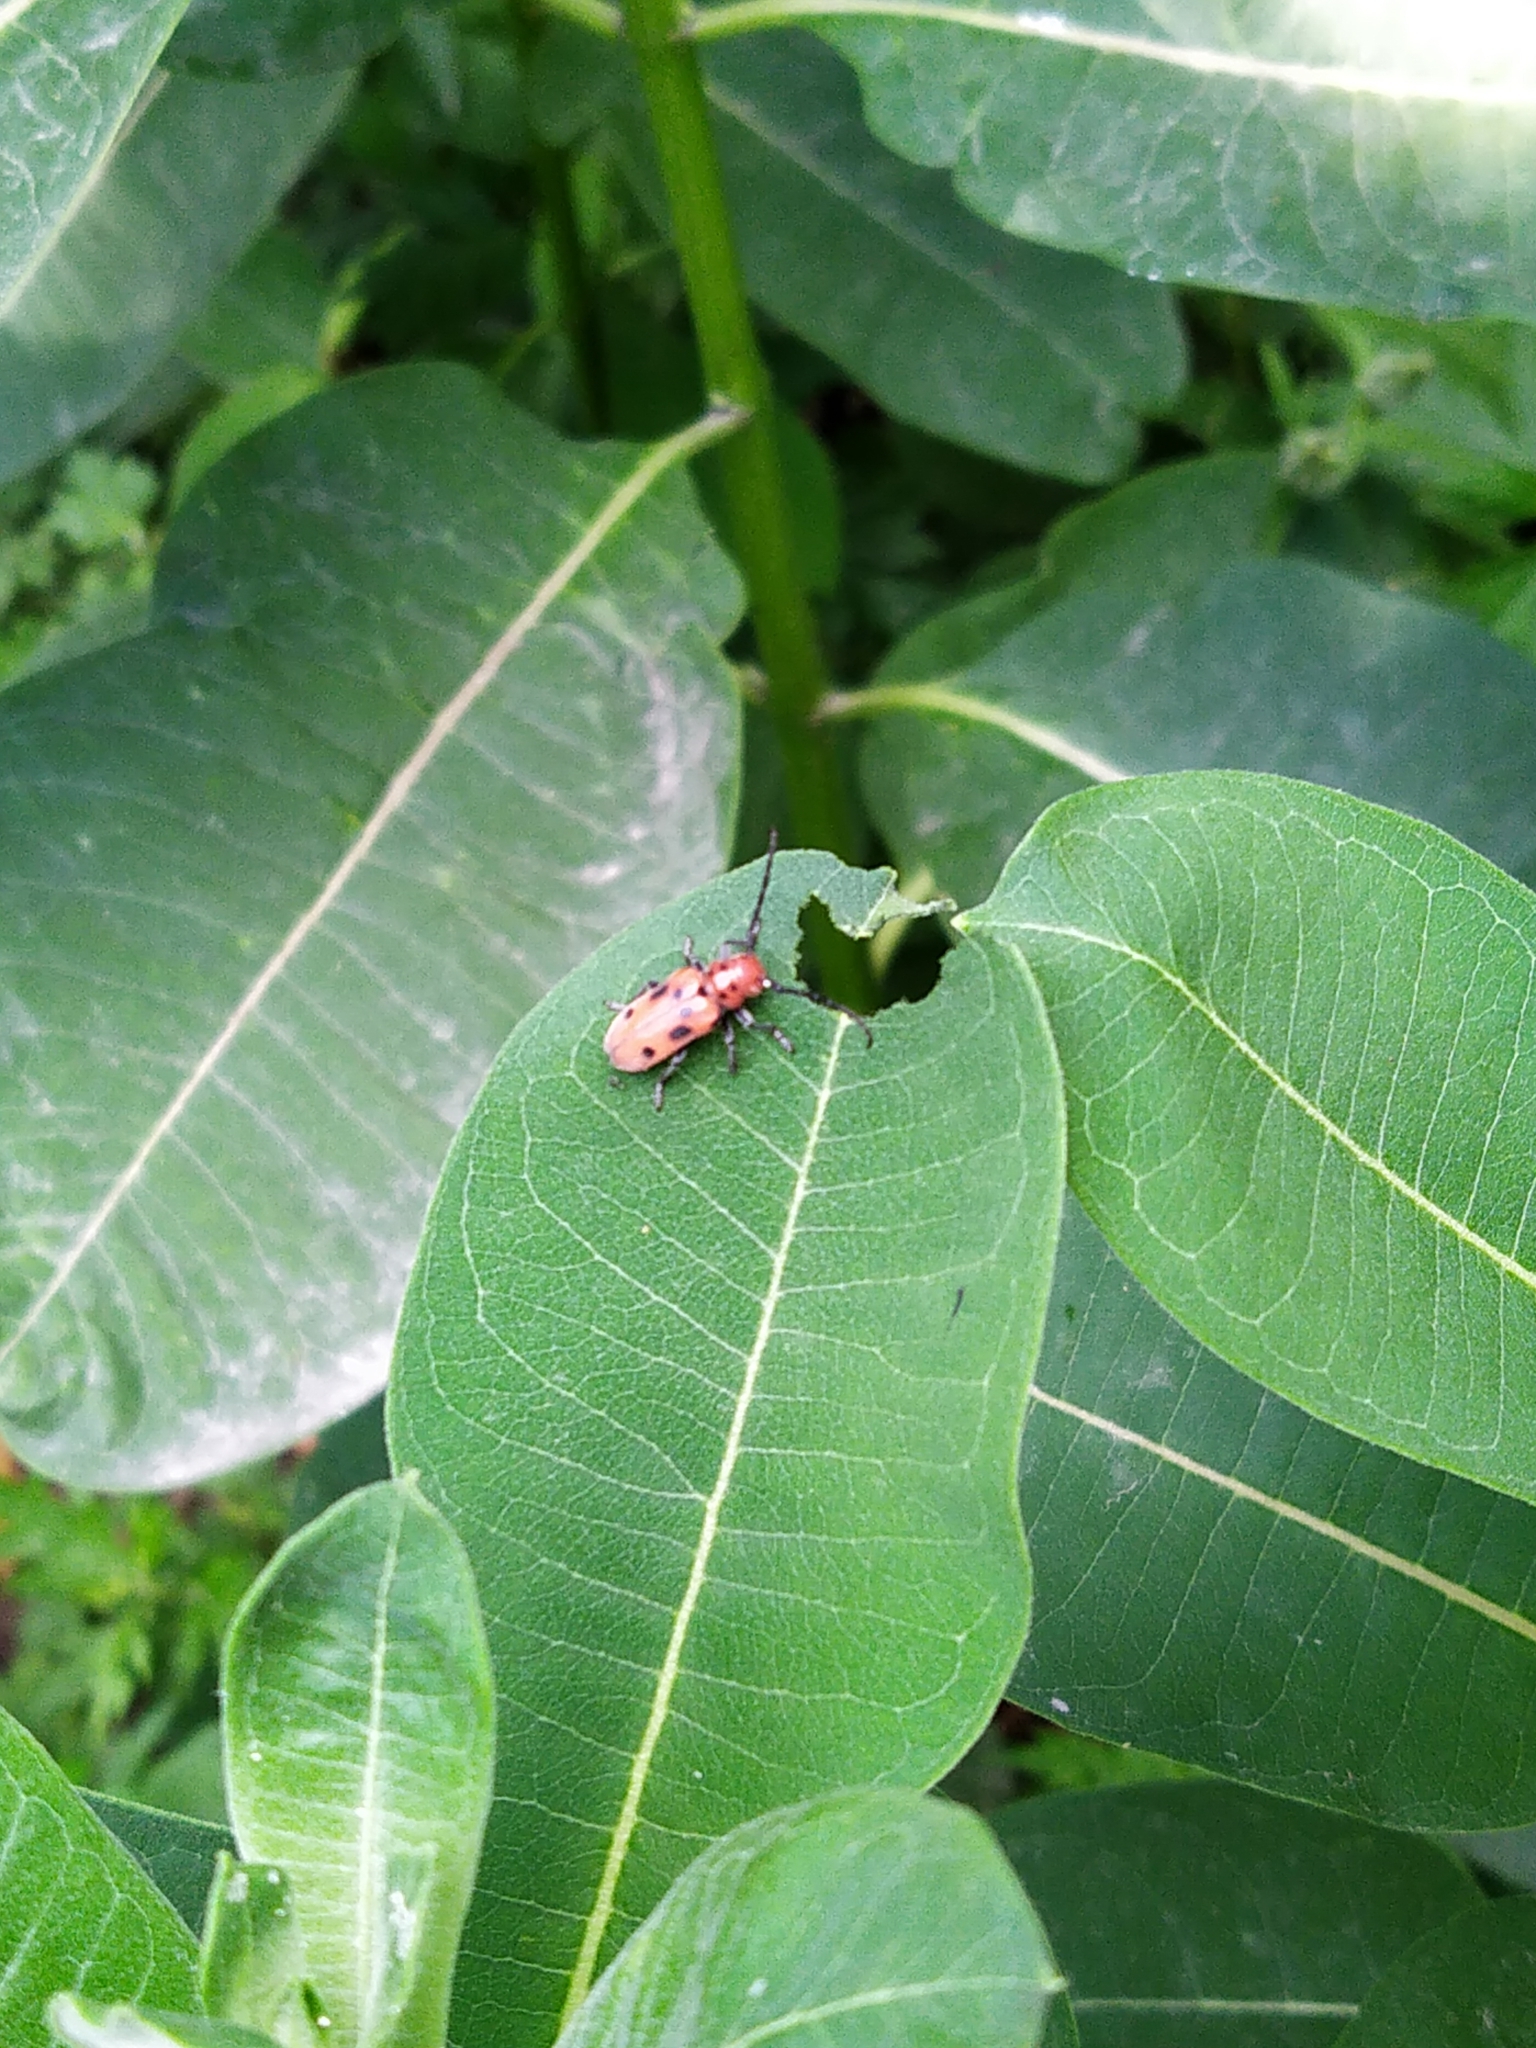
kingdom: Animalia
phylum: Arthropoda
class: Insecta
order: Coleoptera
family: Cerambycidae
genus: Tetraopes
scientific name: Tetraopes tetrophthalmus
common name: Red milkweed beetle
